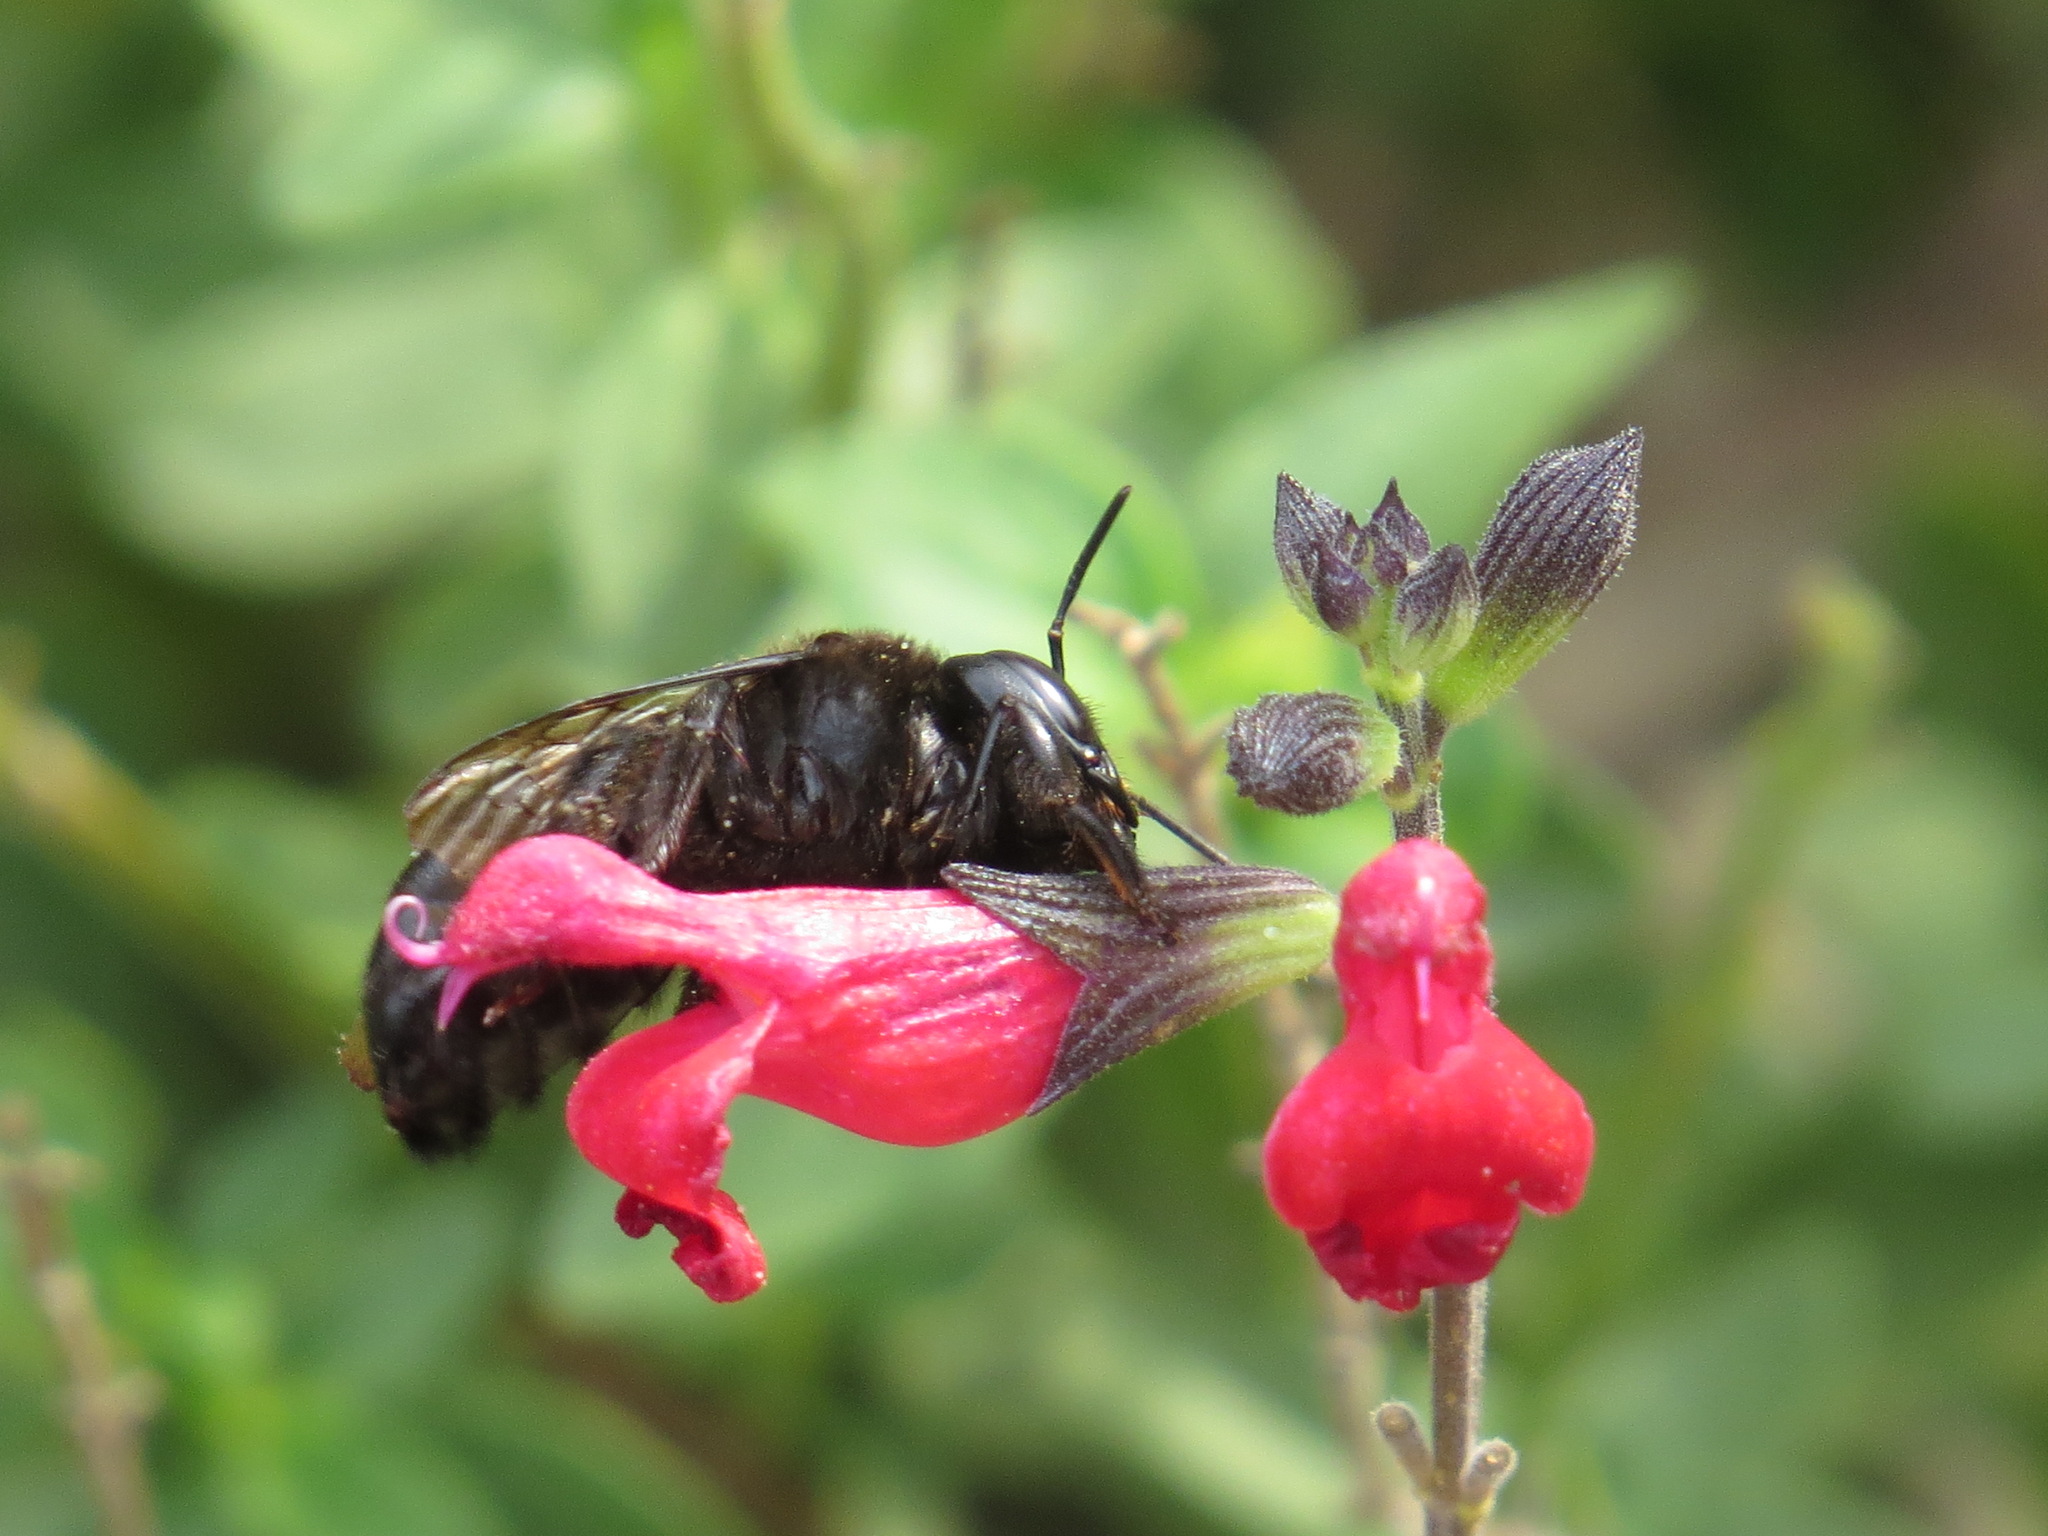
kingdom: Animalia
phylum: Arthropoda
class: Insecta
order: Hymenoptera
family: Apidae
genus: Xylocopa
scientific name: Xylocopa tabaniformis
